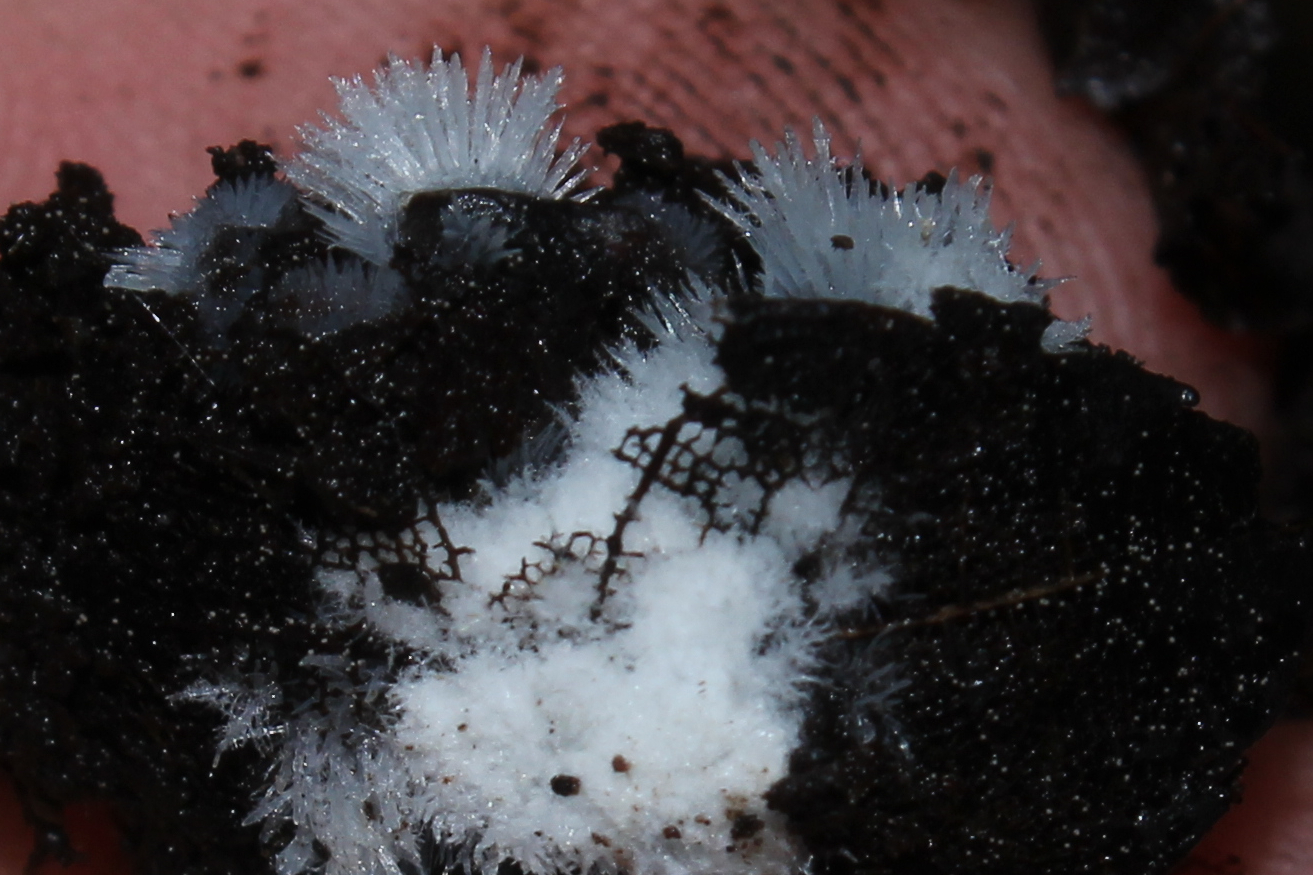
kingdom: Fungi
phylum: Ascomycota
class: Pezizomycetes
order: Pezizales
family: Pezizaceae
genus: Chromelosporiopsis
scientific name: Chromelosporiopsis coerulescens
